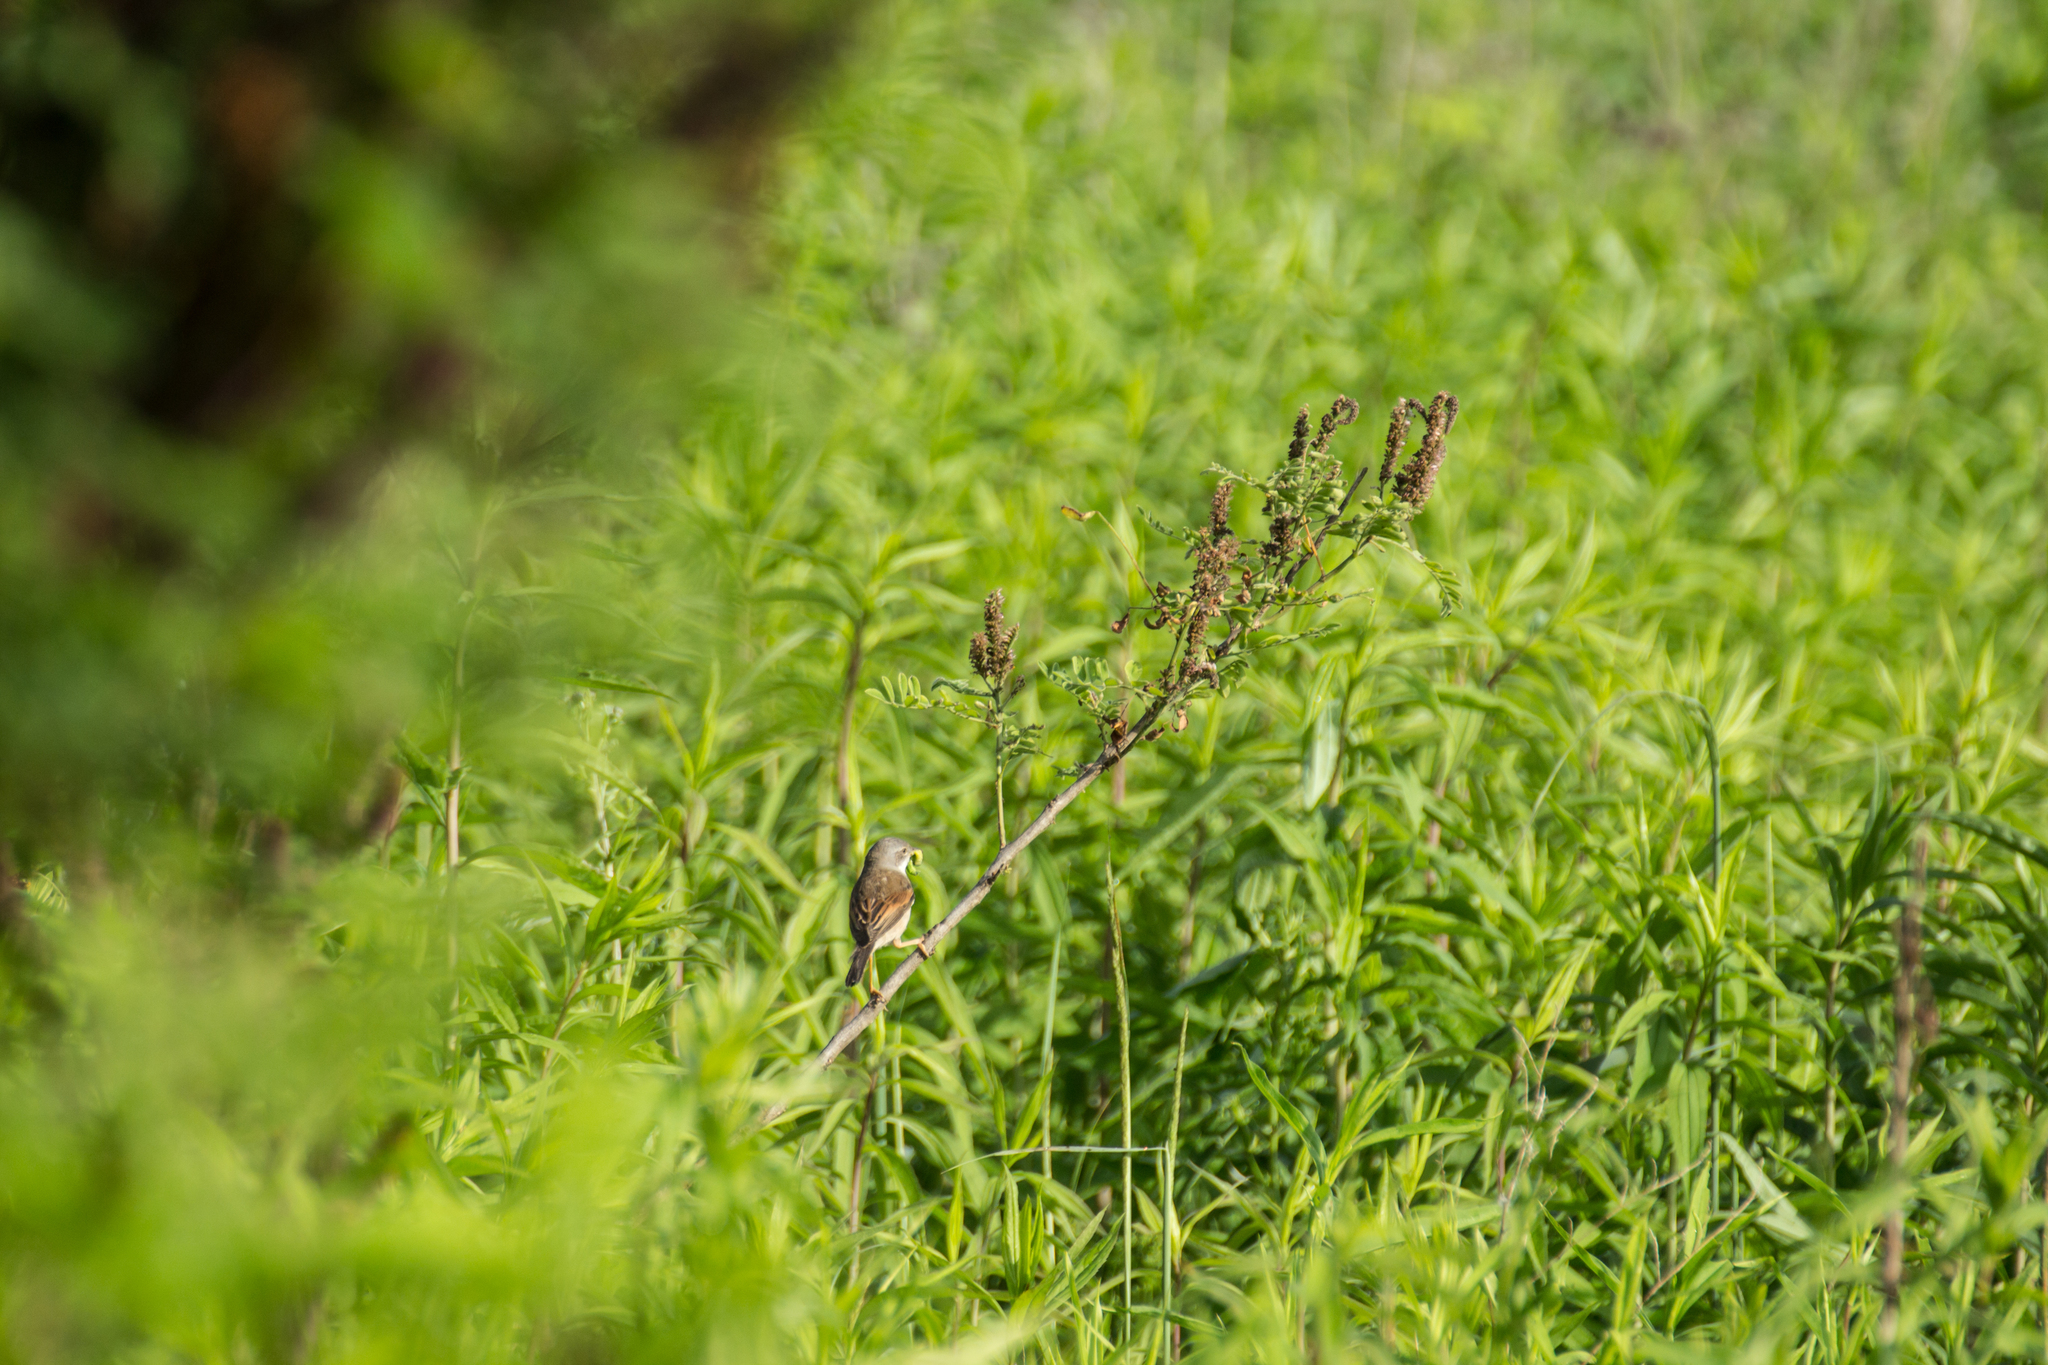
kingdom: Animalia
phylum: Chordata
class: Aves
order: Passeriformes
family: Sylviidae
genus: Sylvia
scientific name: Sylvia communis
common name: Common whitethroat
